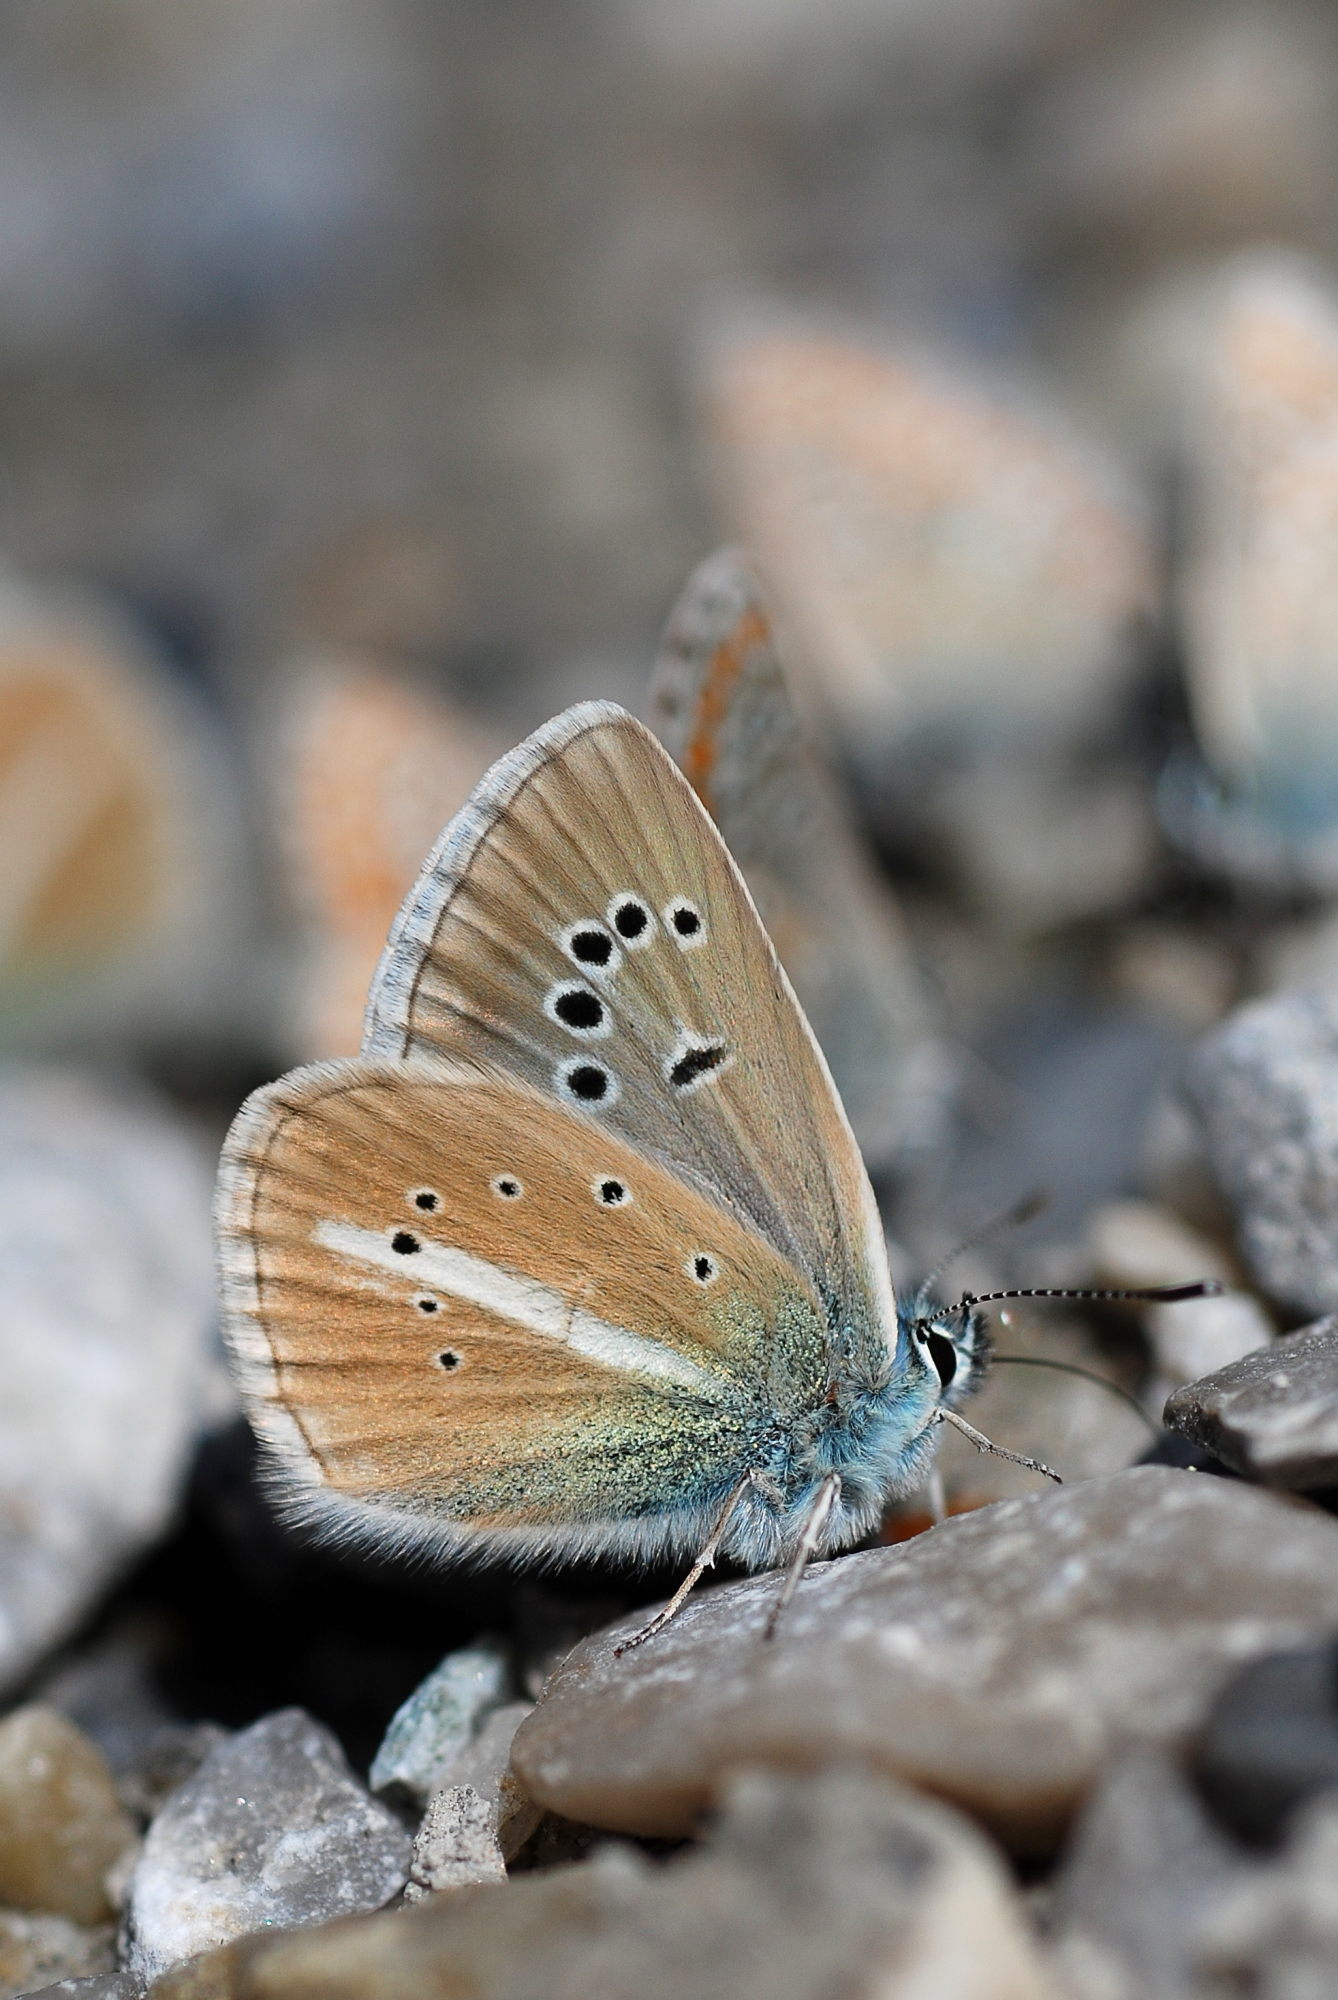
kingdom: Animalia
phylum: Arthropoda
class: Insecta
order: Lepidoptera
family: Lycaenidae
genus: Agrodiaetus
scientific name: Agrodiaetus damon
